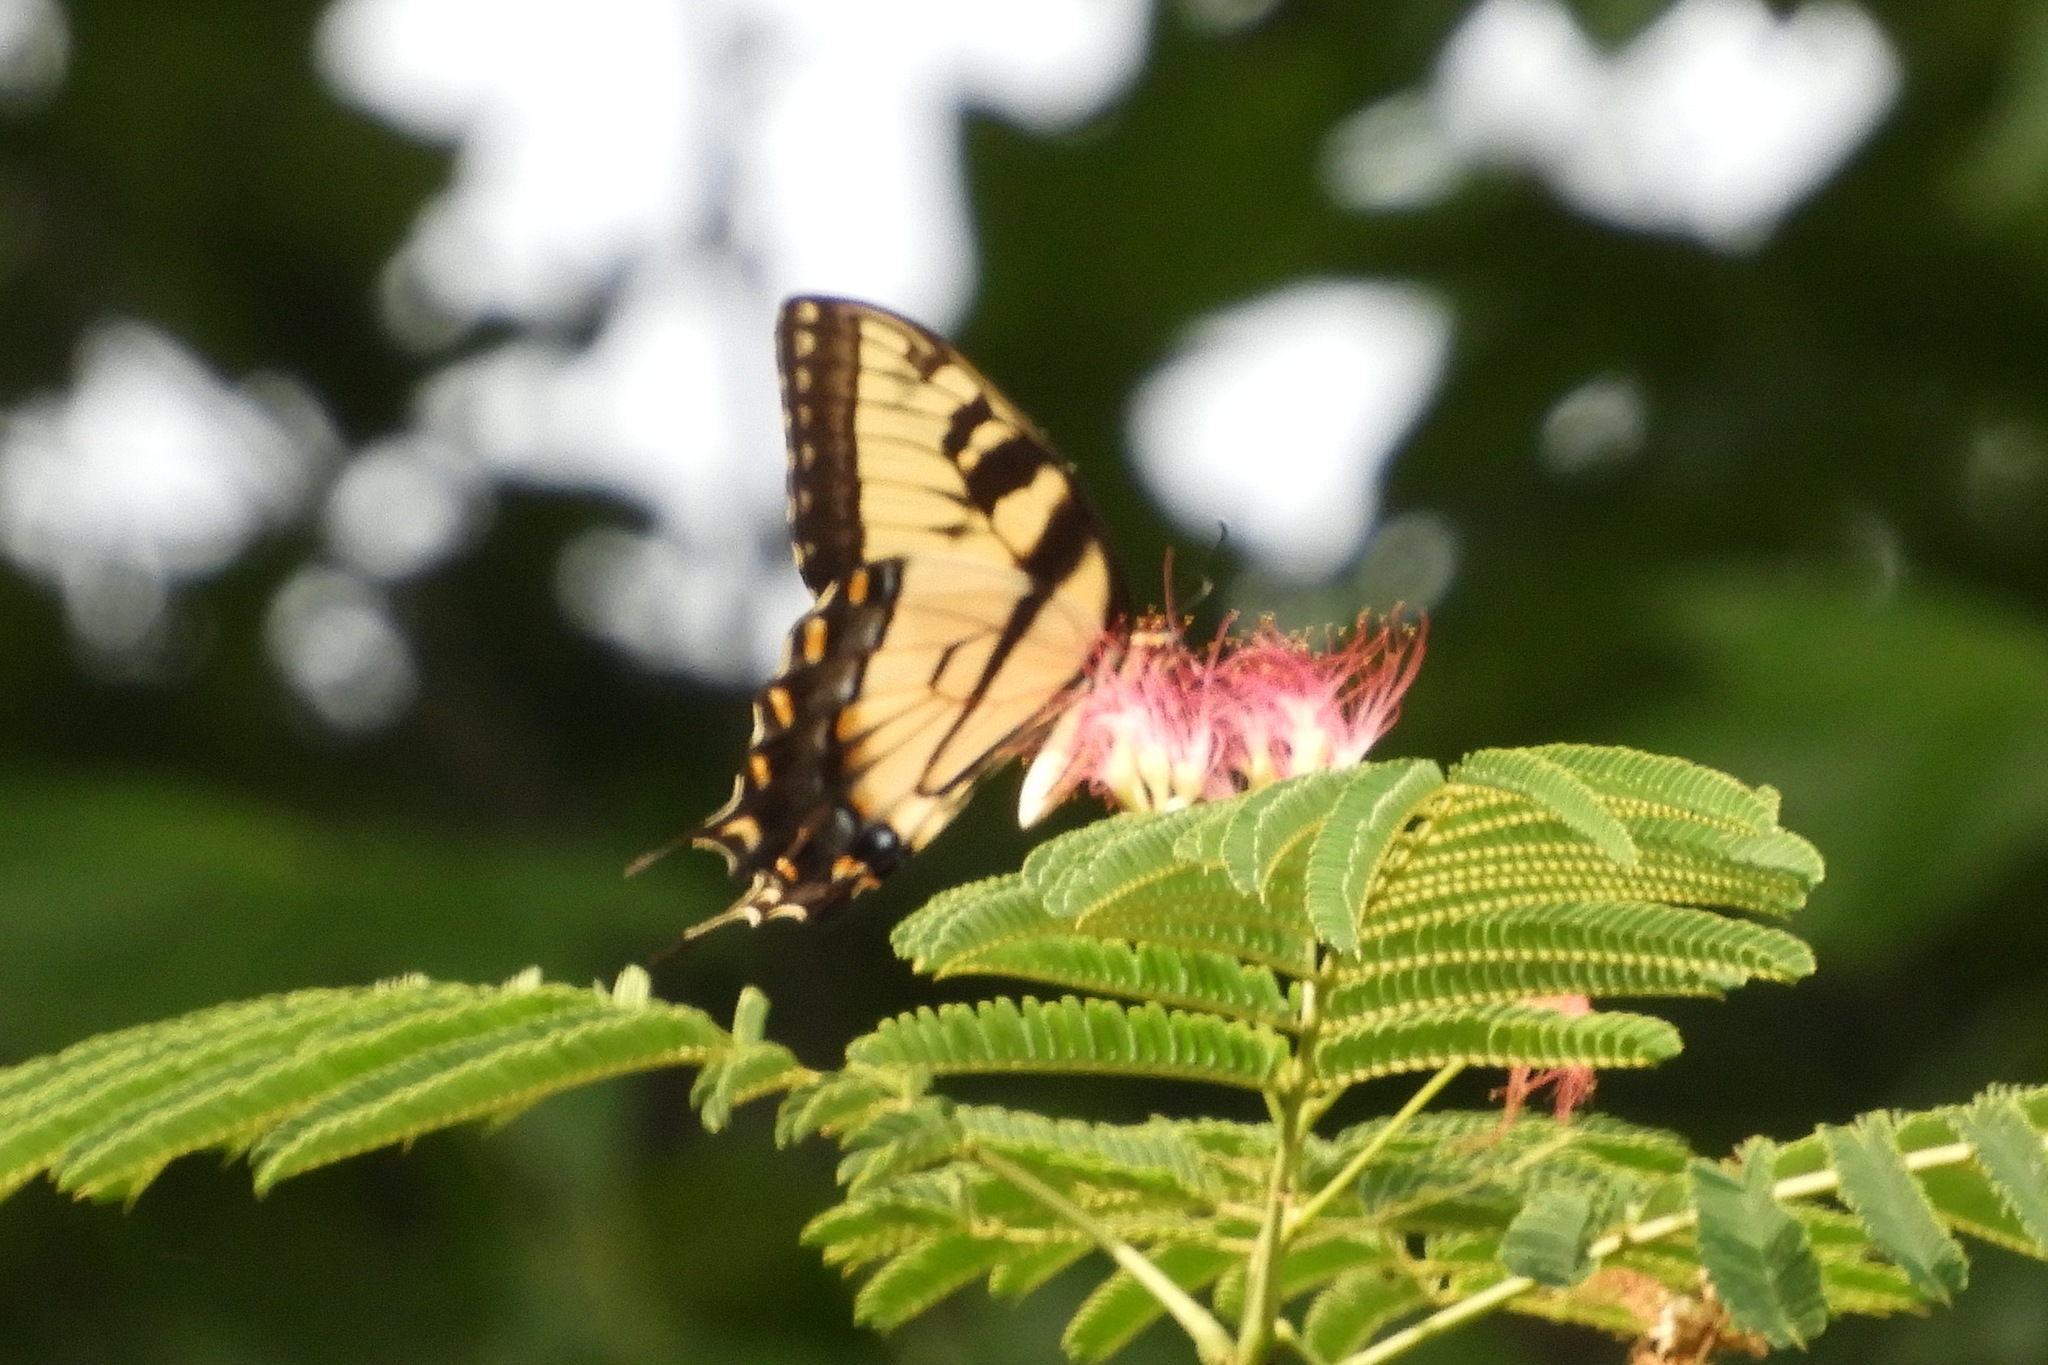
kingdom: Animalia
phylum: Arthropoda
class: Insecta
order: Lepidoptera
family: Papilionidae
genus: Papilio
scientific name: Papilio glaucus
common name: Tiger swallowtail
